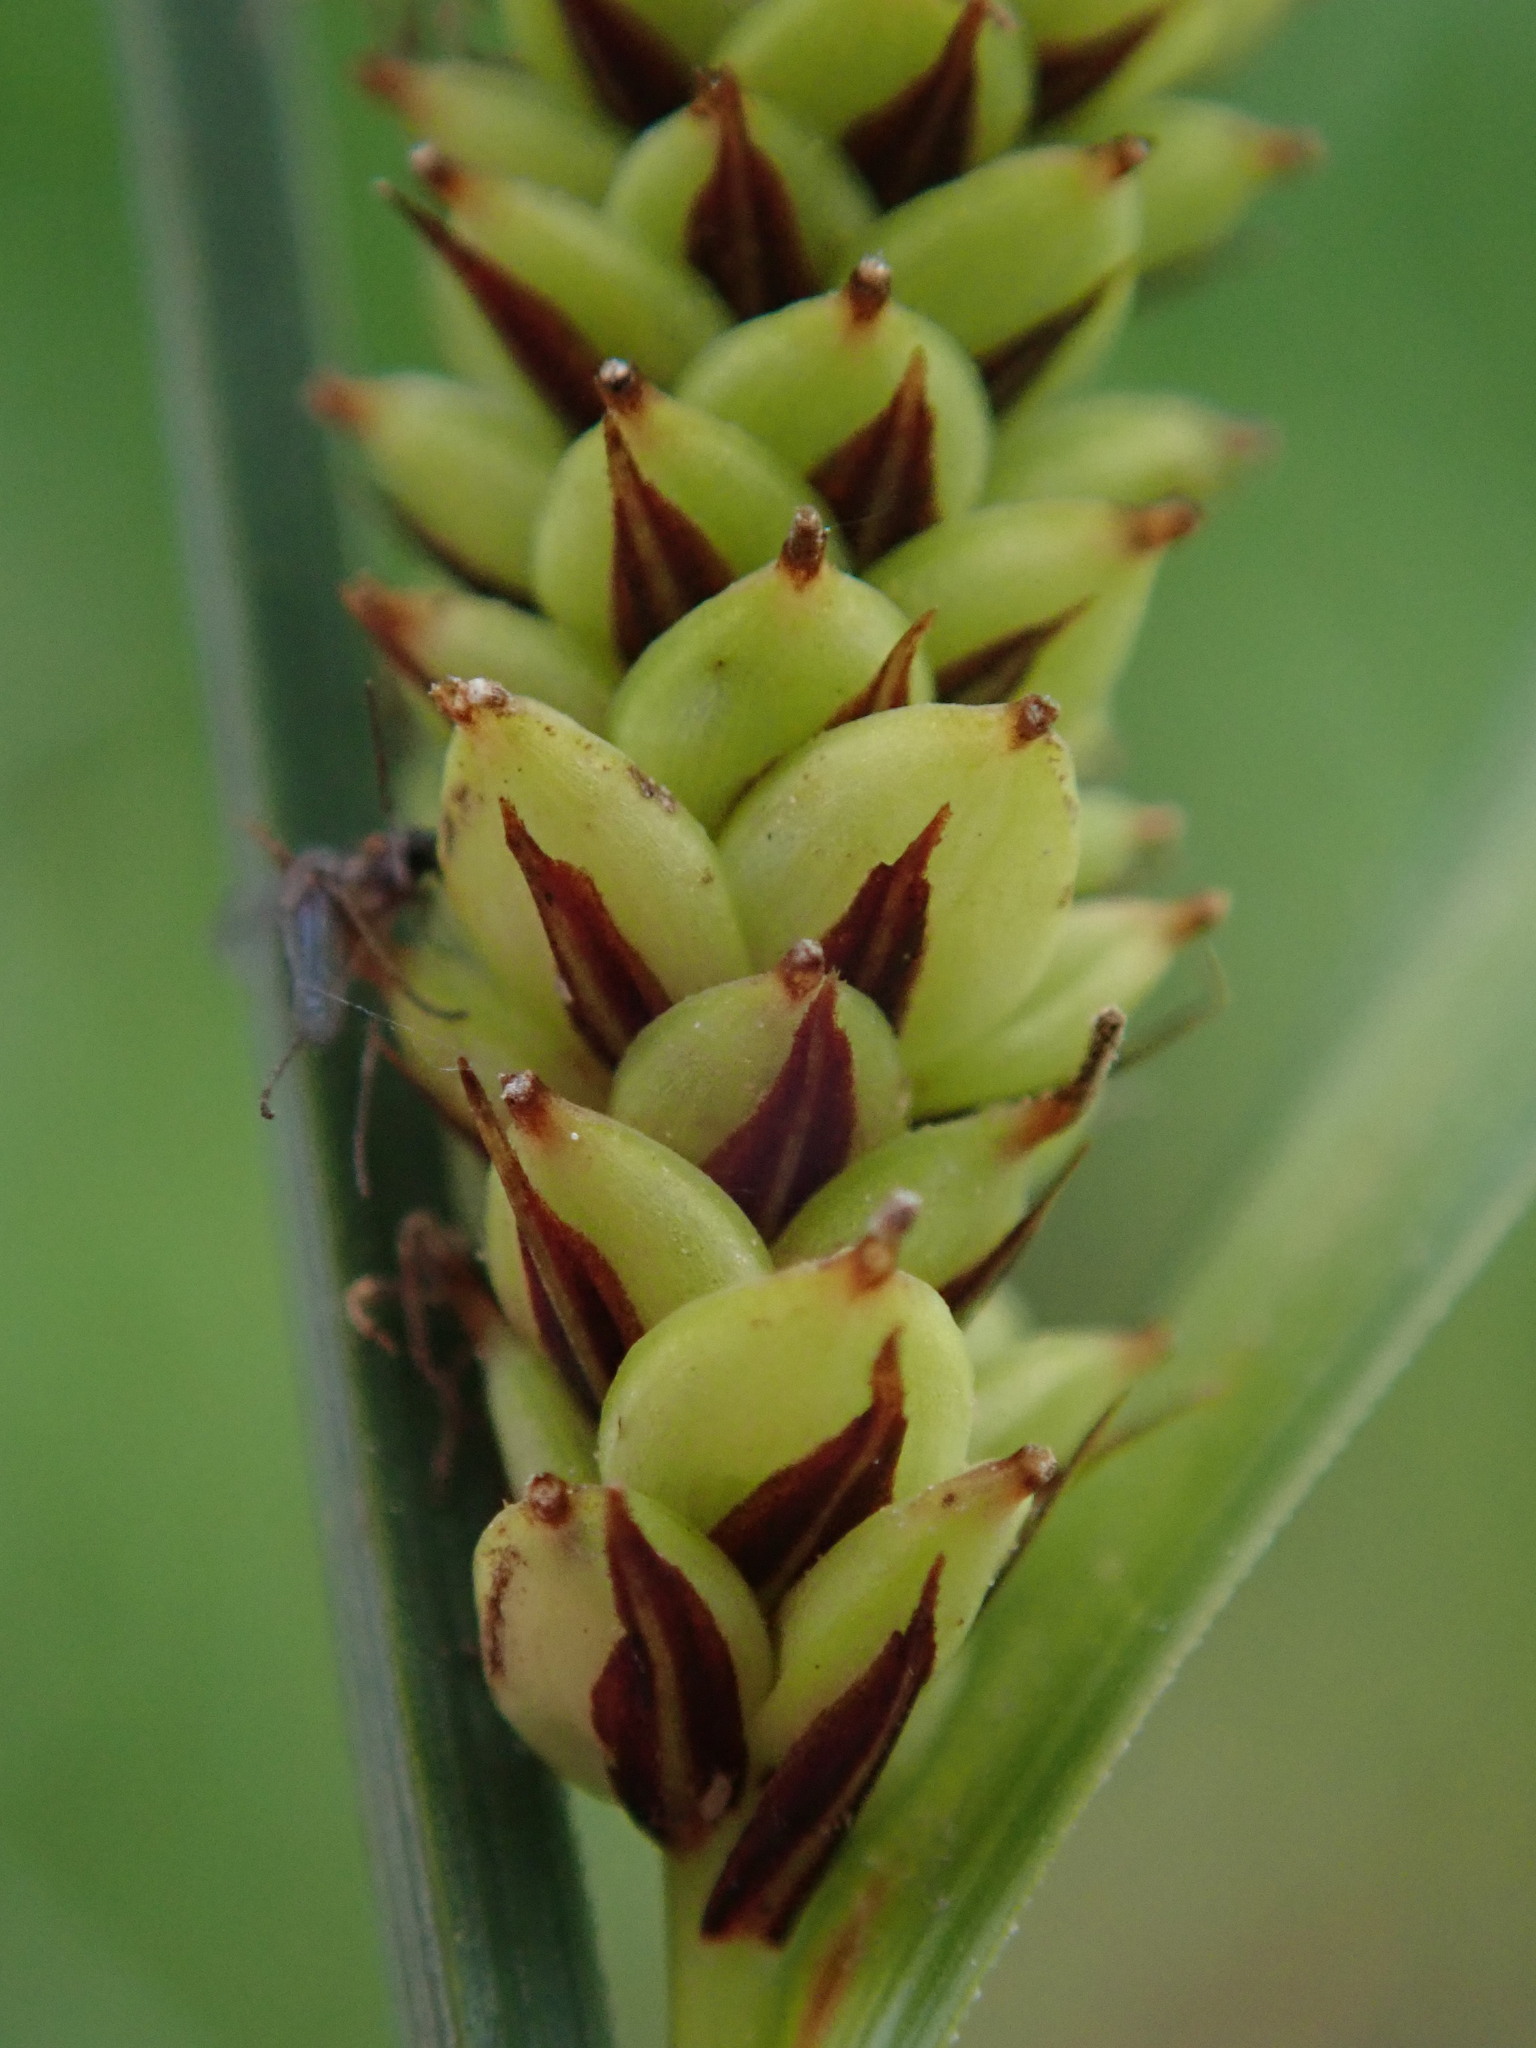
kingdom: Plantae
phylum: Tracheophyta
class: Liliopsida
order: Poales
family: Cyperaceae
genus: Carex
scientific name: Carex acutiformis
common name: Lesser pond-sedge
